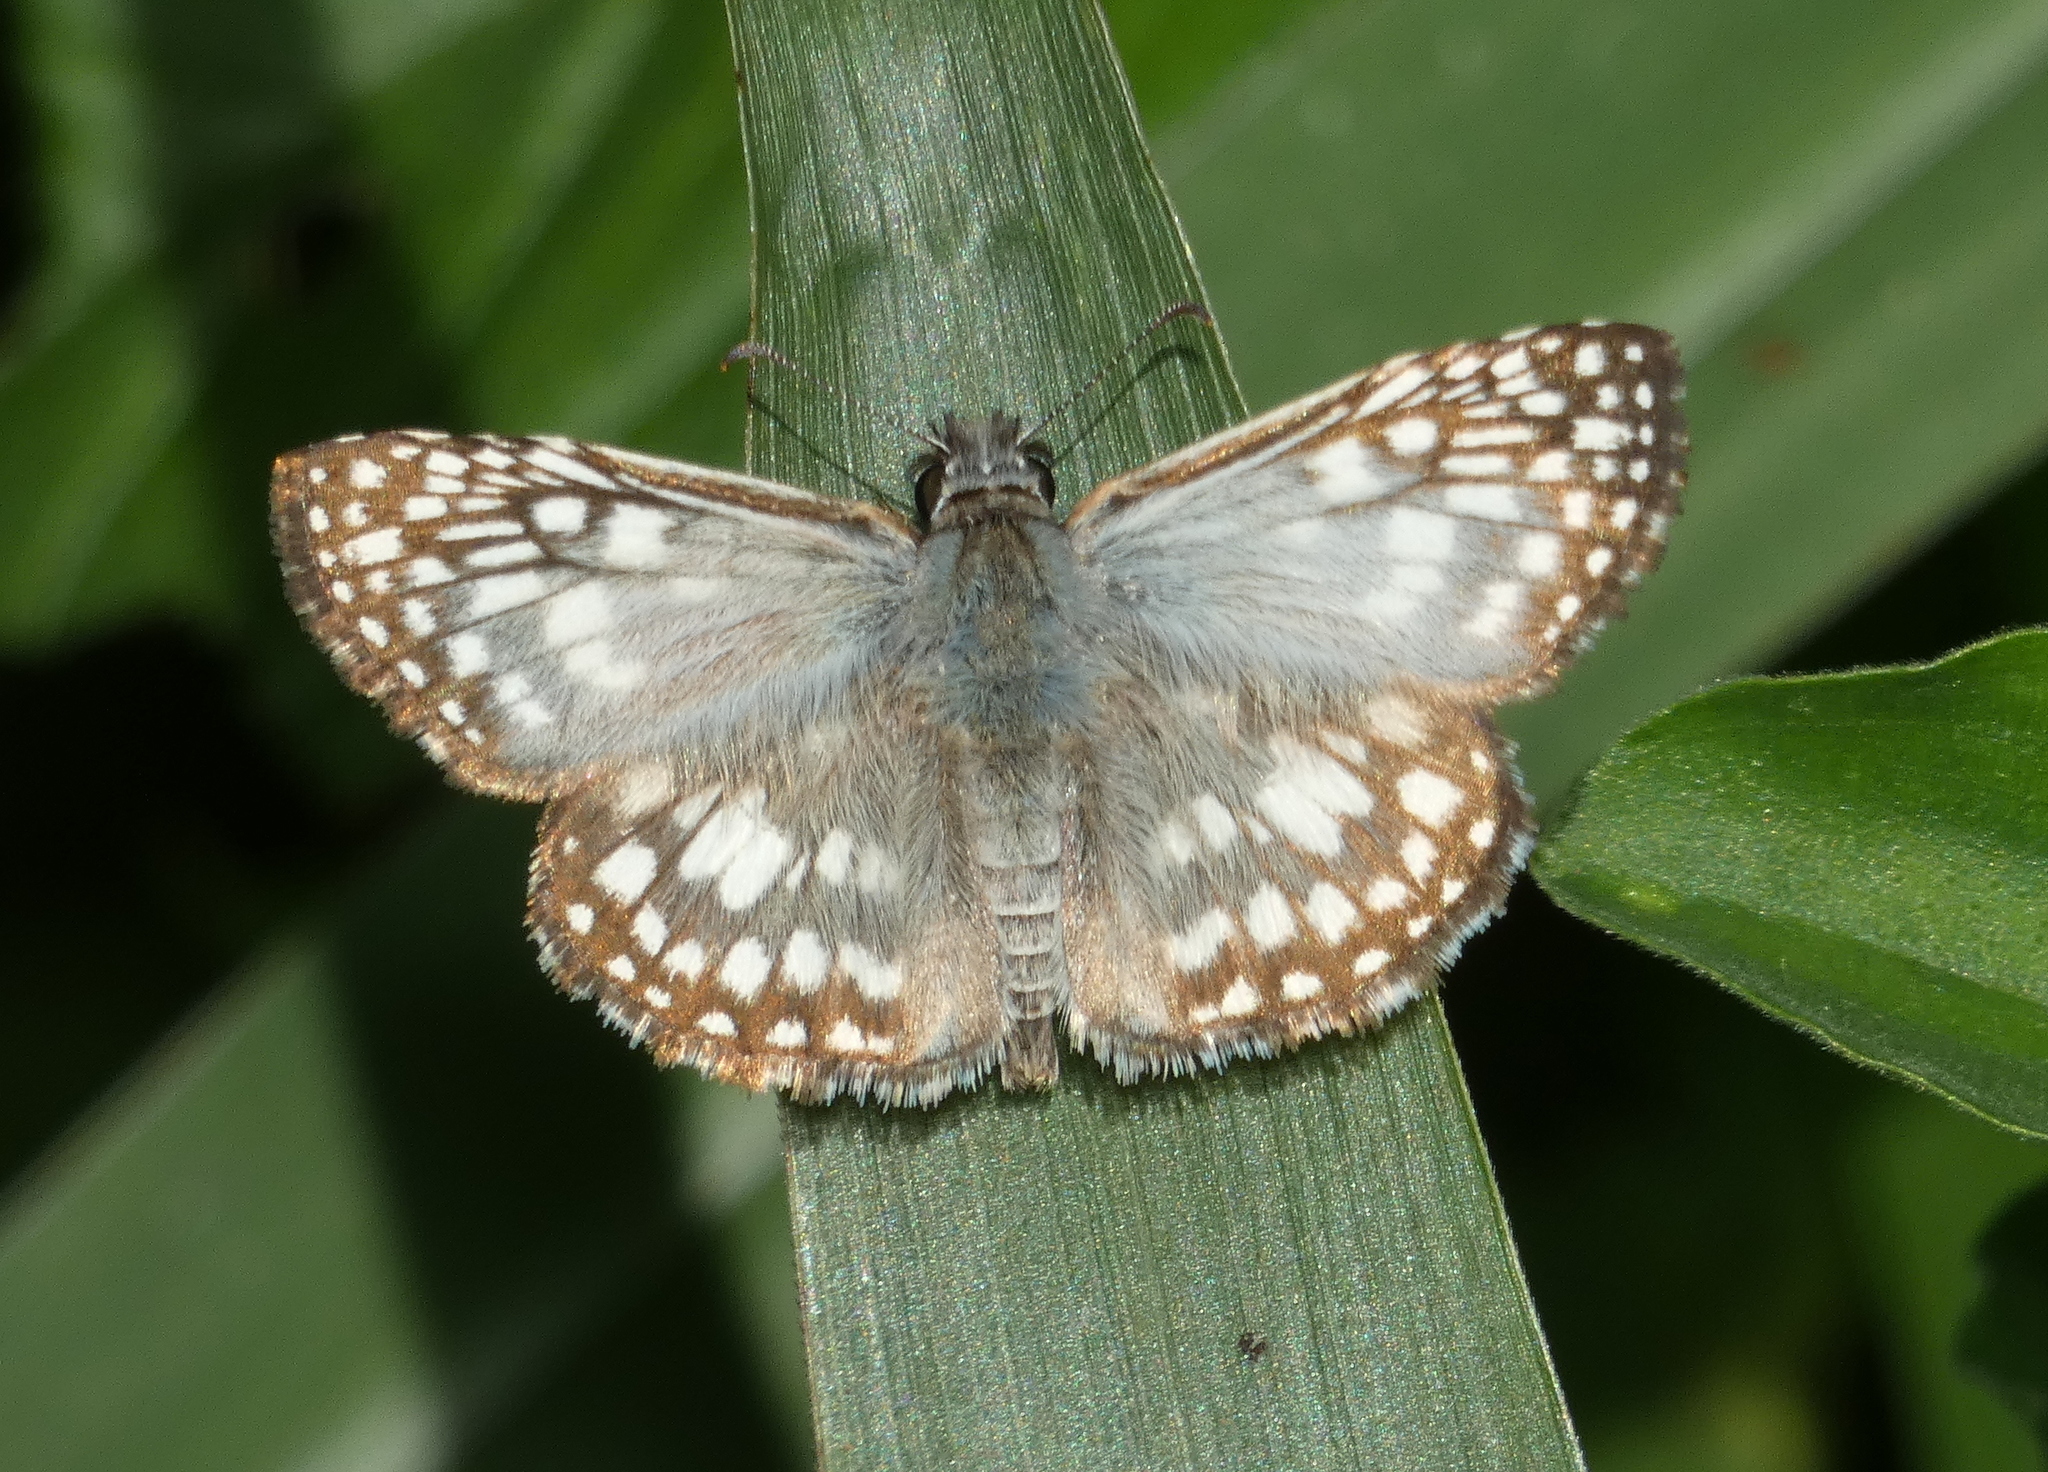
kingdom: Animalia
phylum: Arthropoda
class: Insecta
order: Lepidoptera
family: Hesperiidae
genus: Pyrgus
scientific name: Pyrgus oileus
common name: Tropical checkered-skipper
